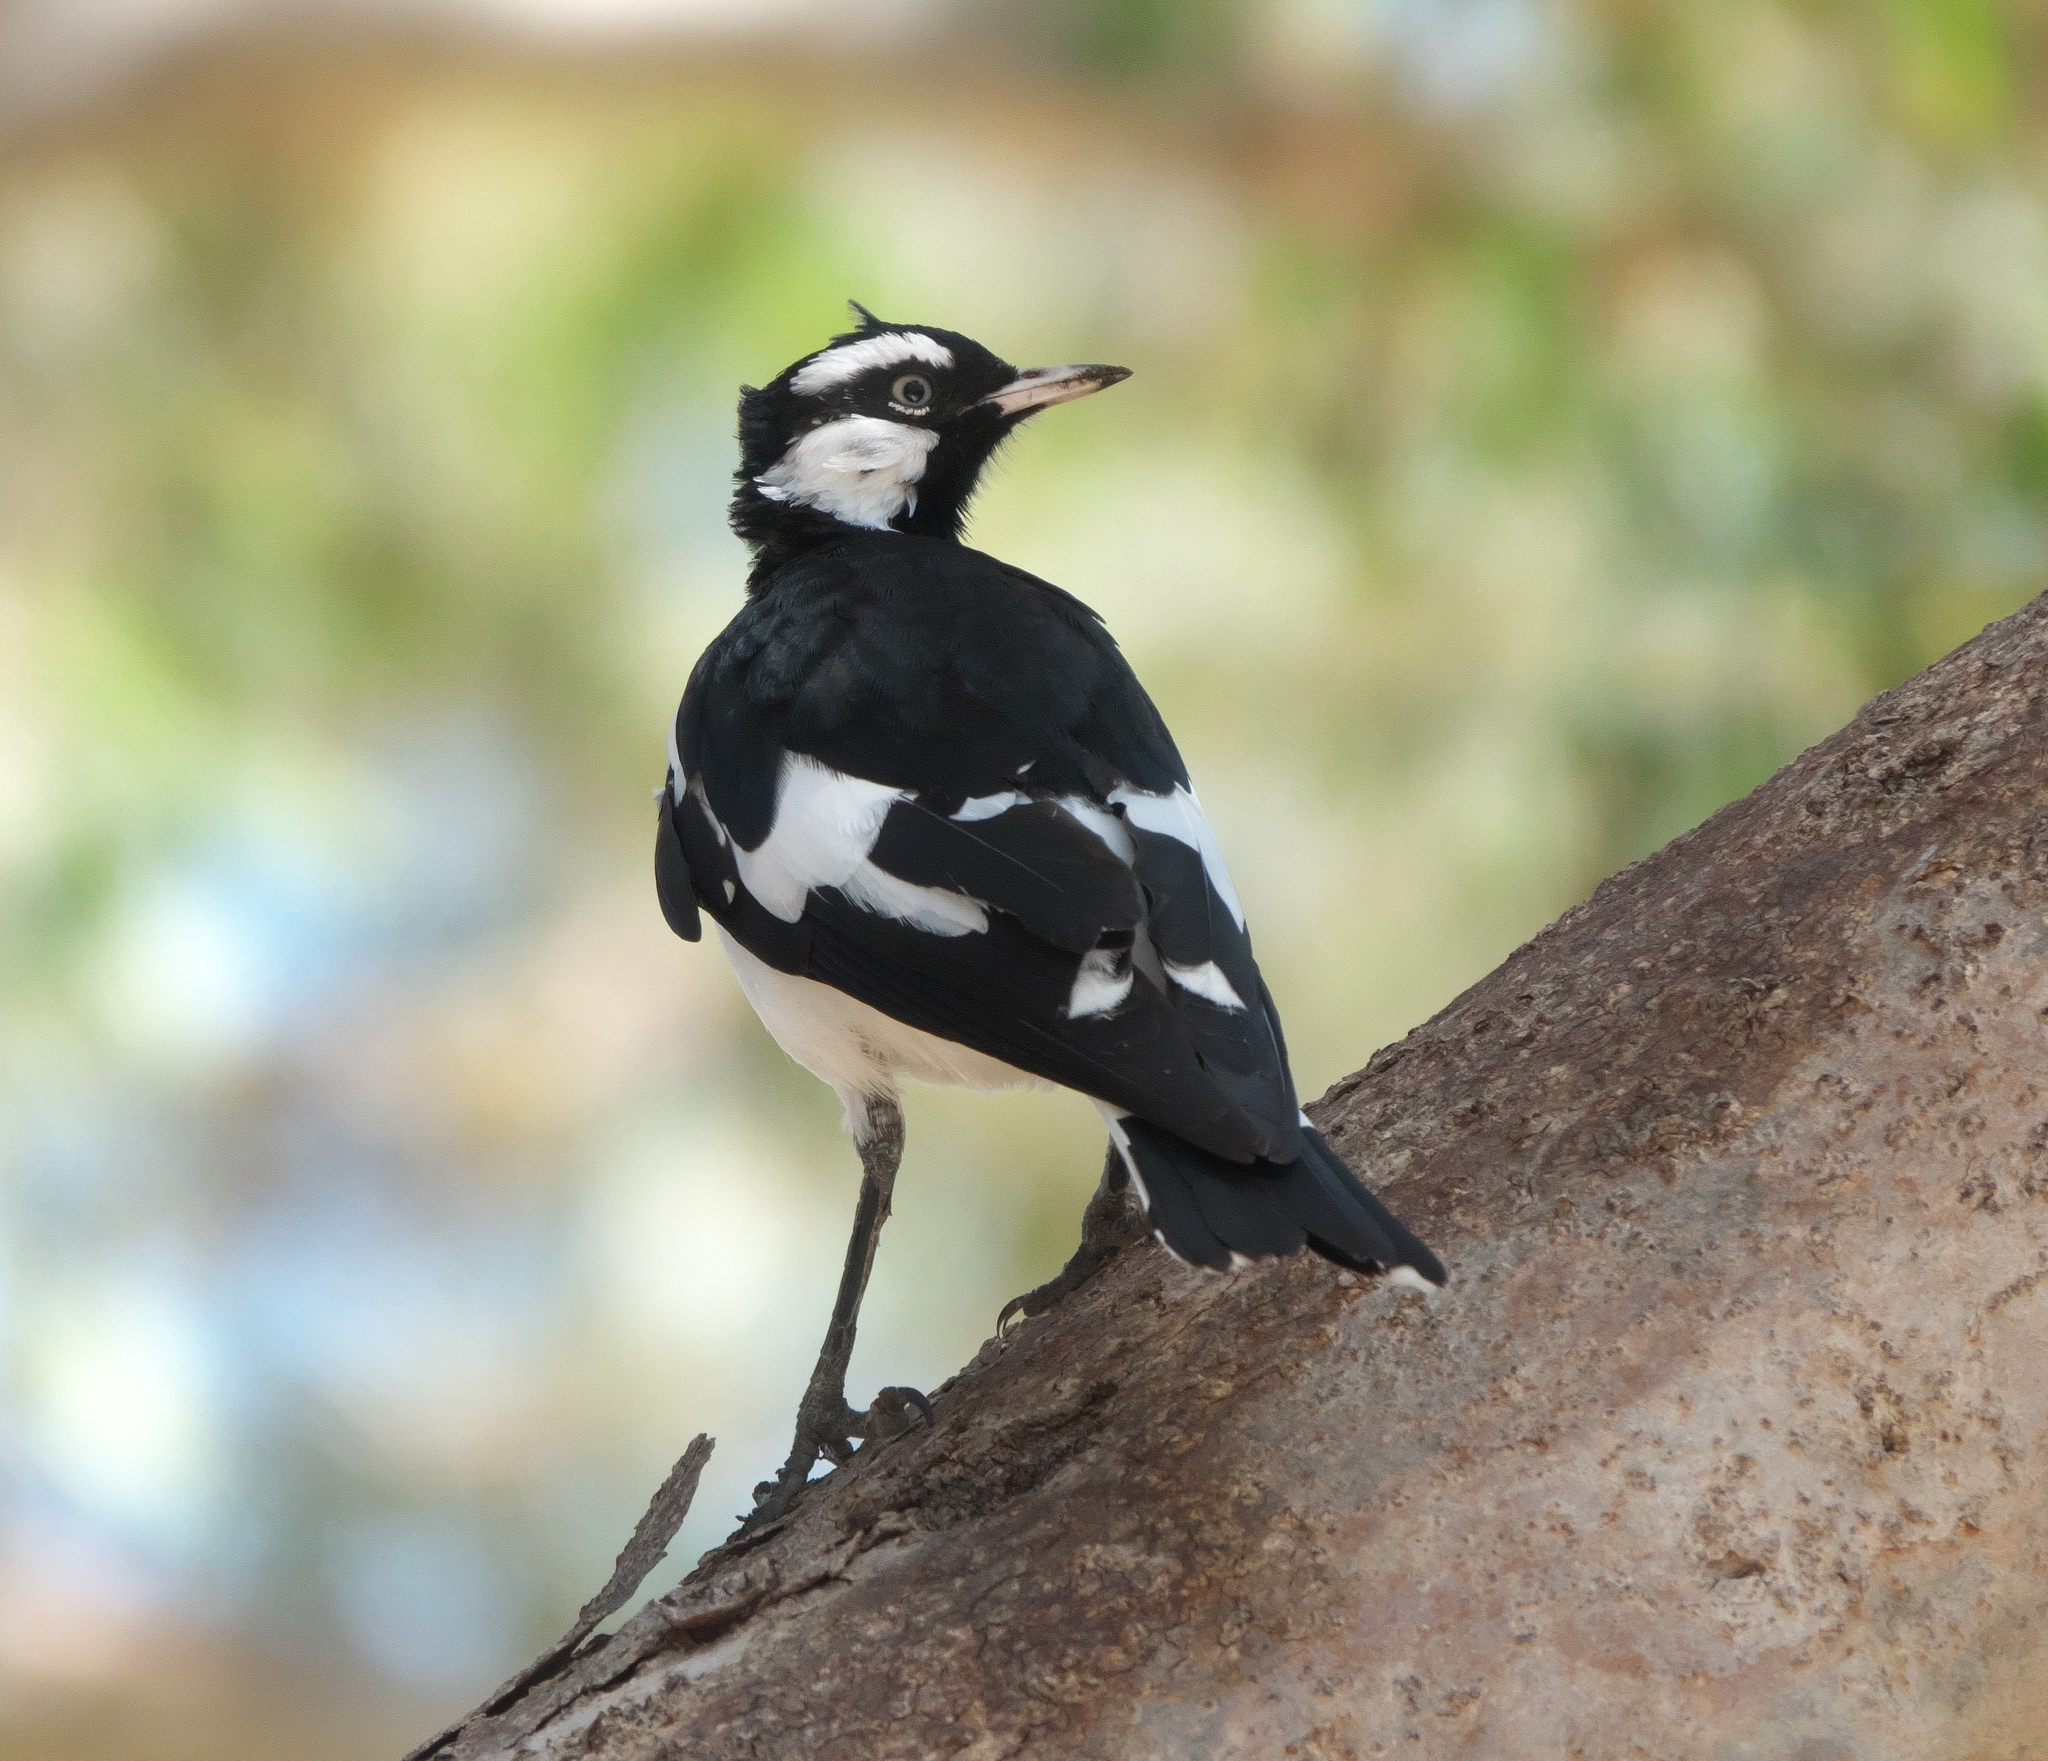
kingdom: Animalia
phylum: Chordata
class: Aves
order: Passeriformes
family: Monarchidae
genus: Grallina
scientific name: Grallina cyanoleuca
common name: Magpie-lark
